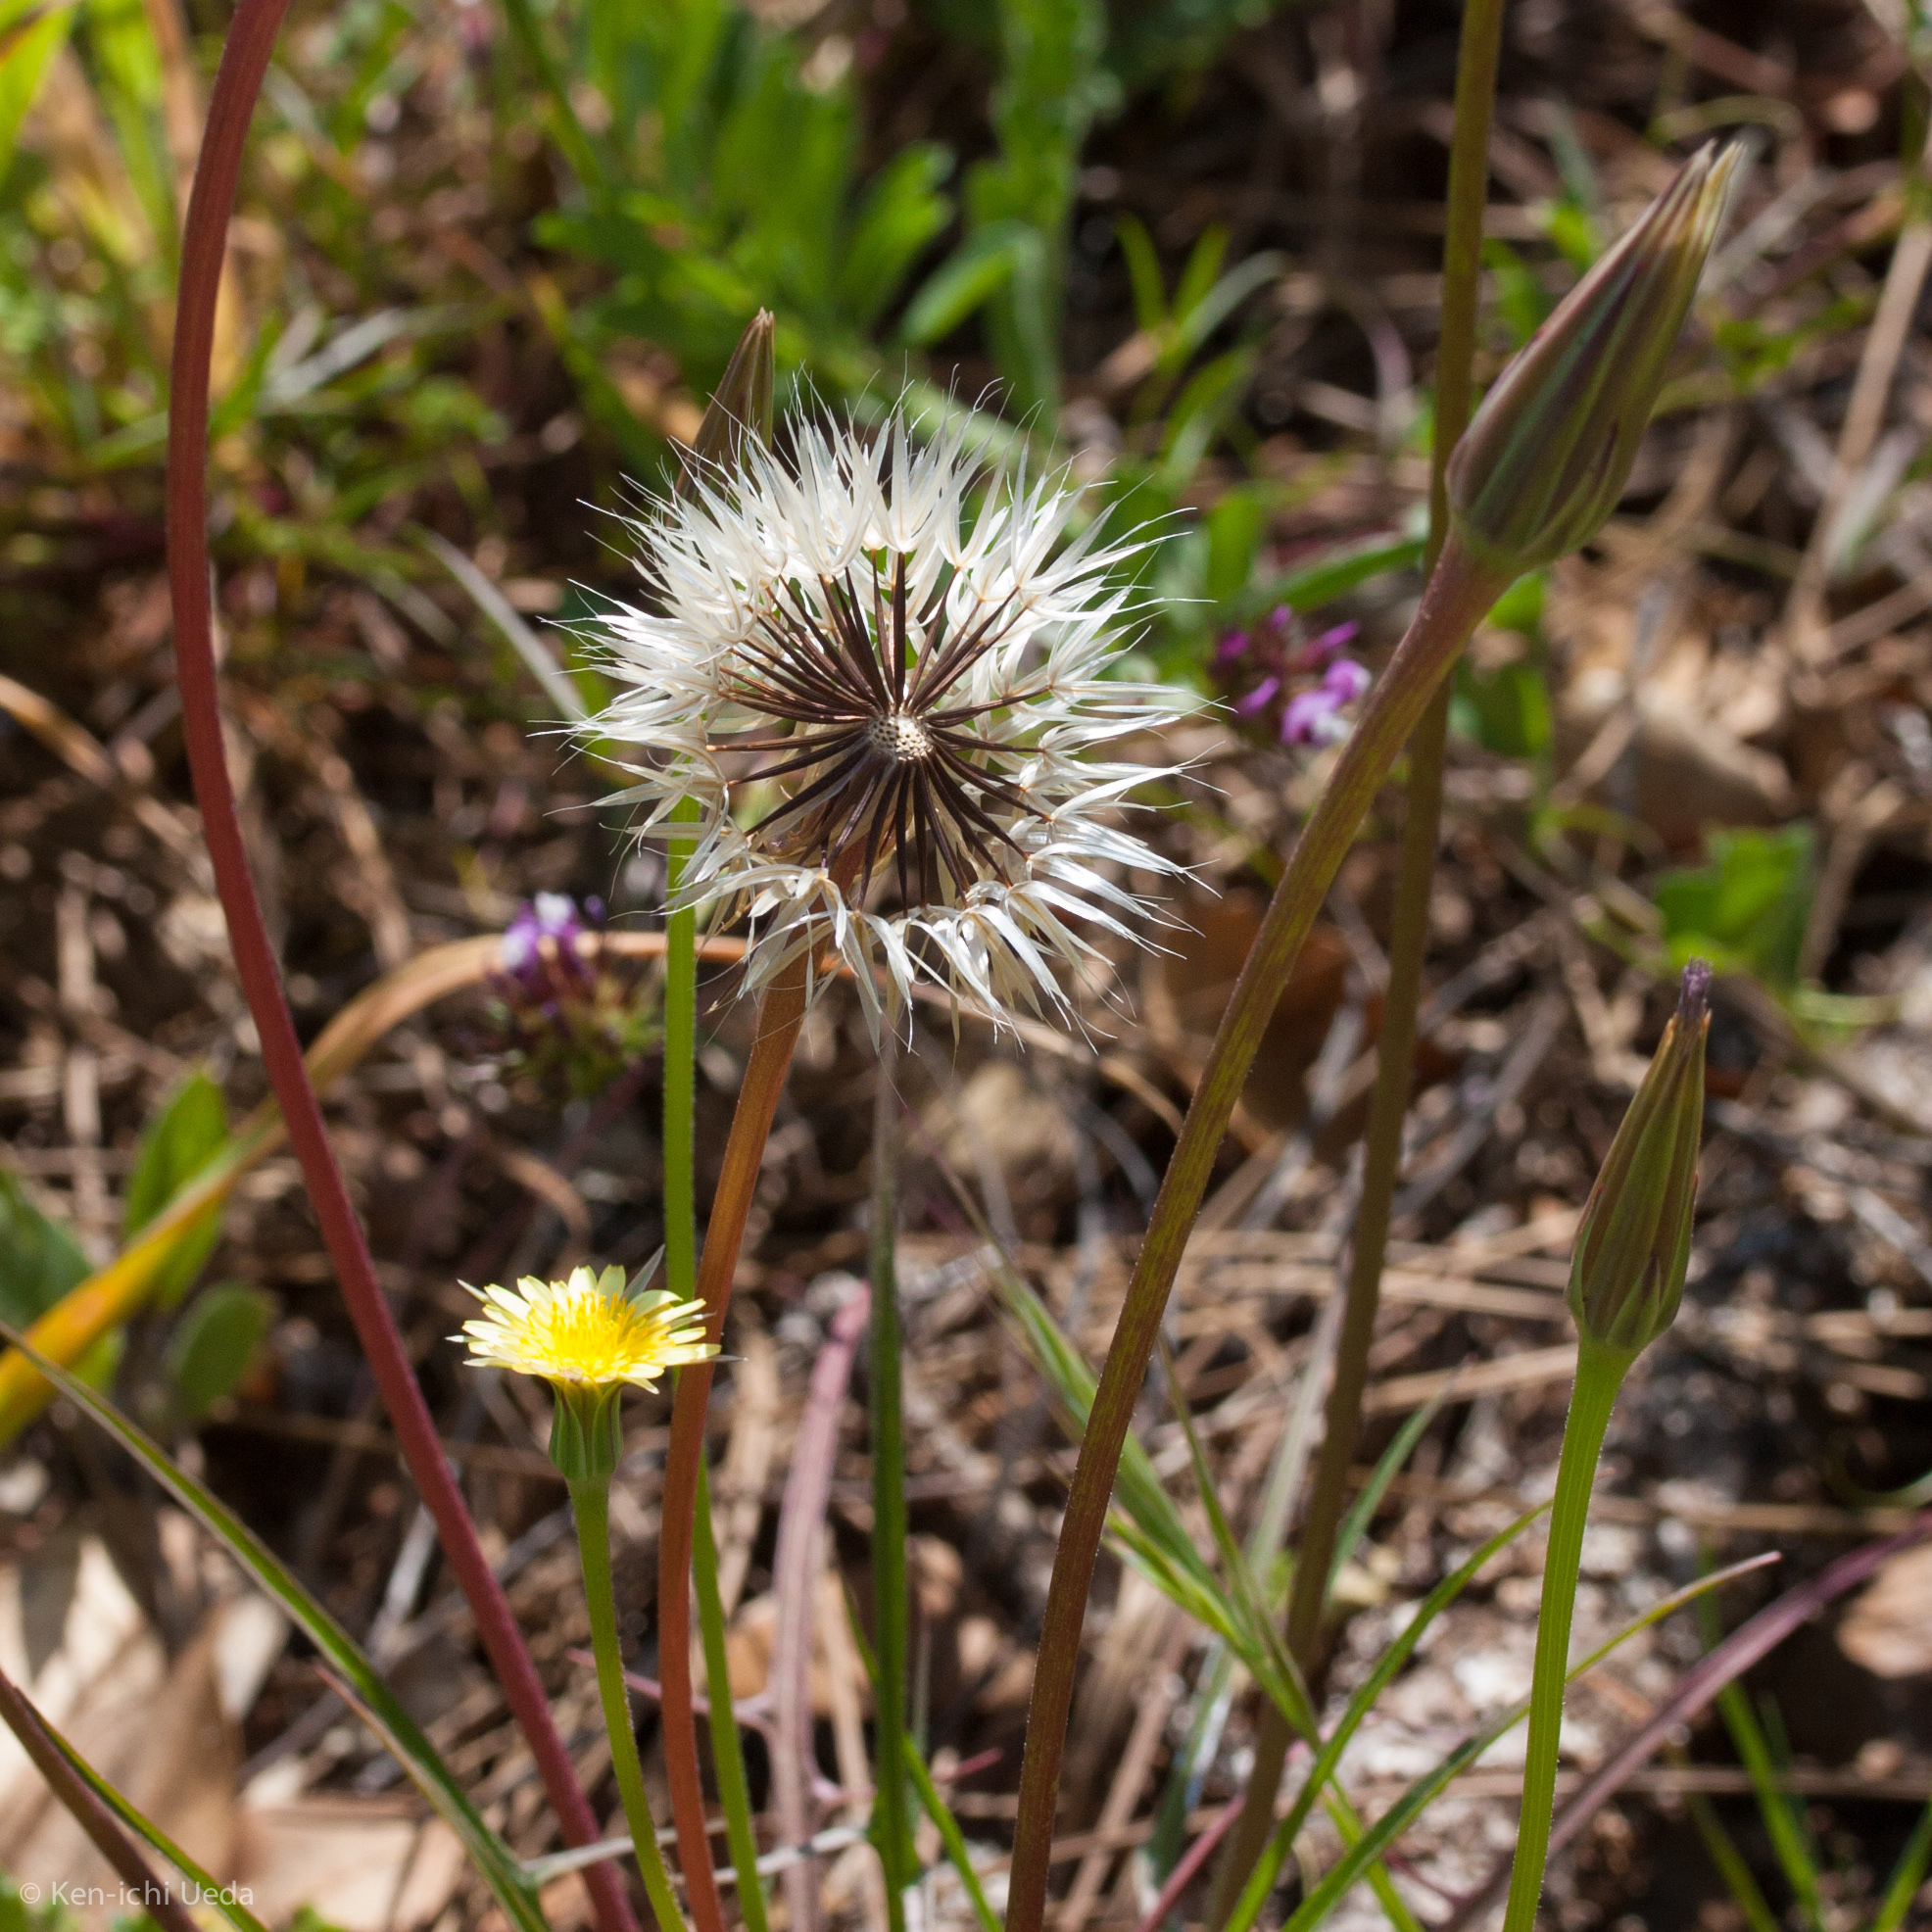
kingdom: Plantae
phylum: Tracheophyta
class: Magnoliopsida
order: Asterales
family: Asteraceae
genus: Microseris
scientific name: Microseris lindleyi
